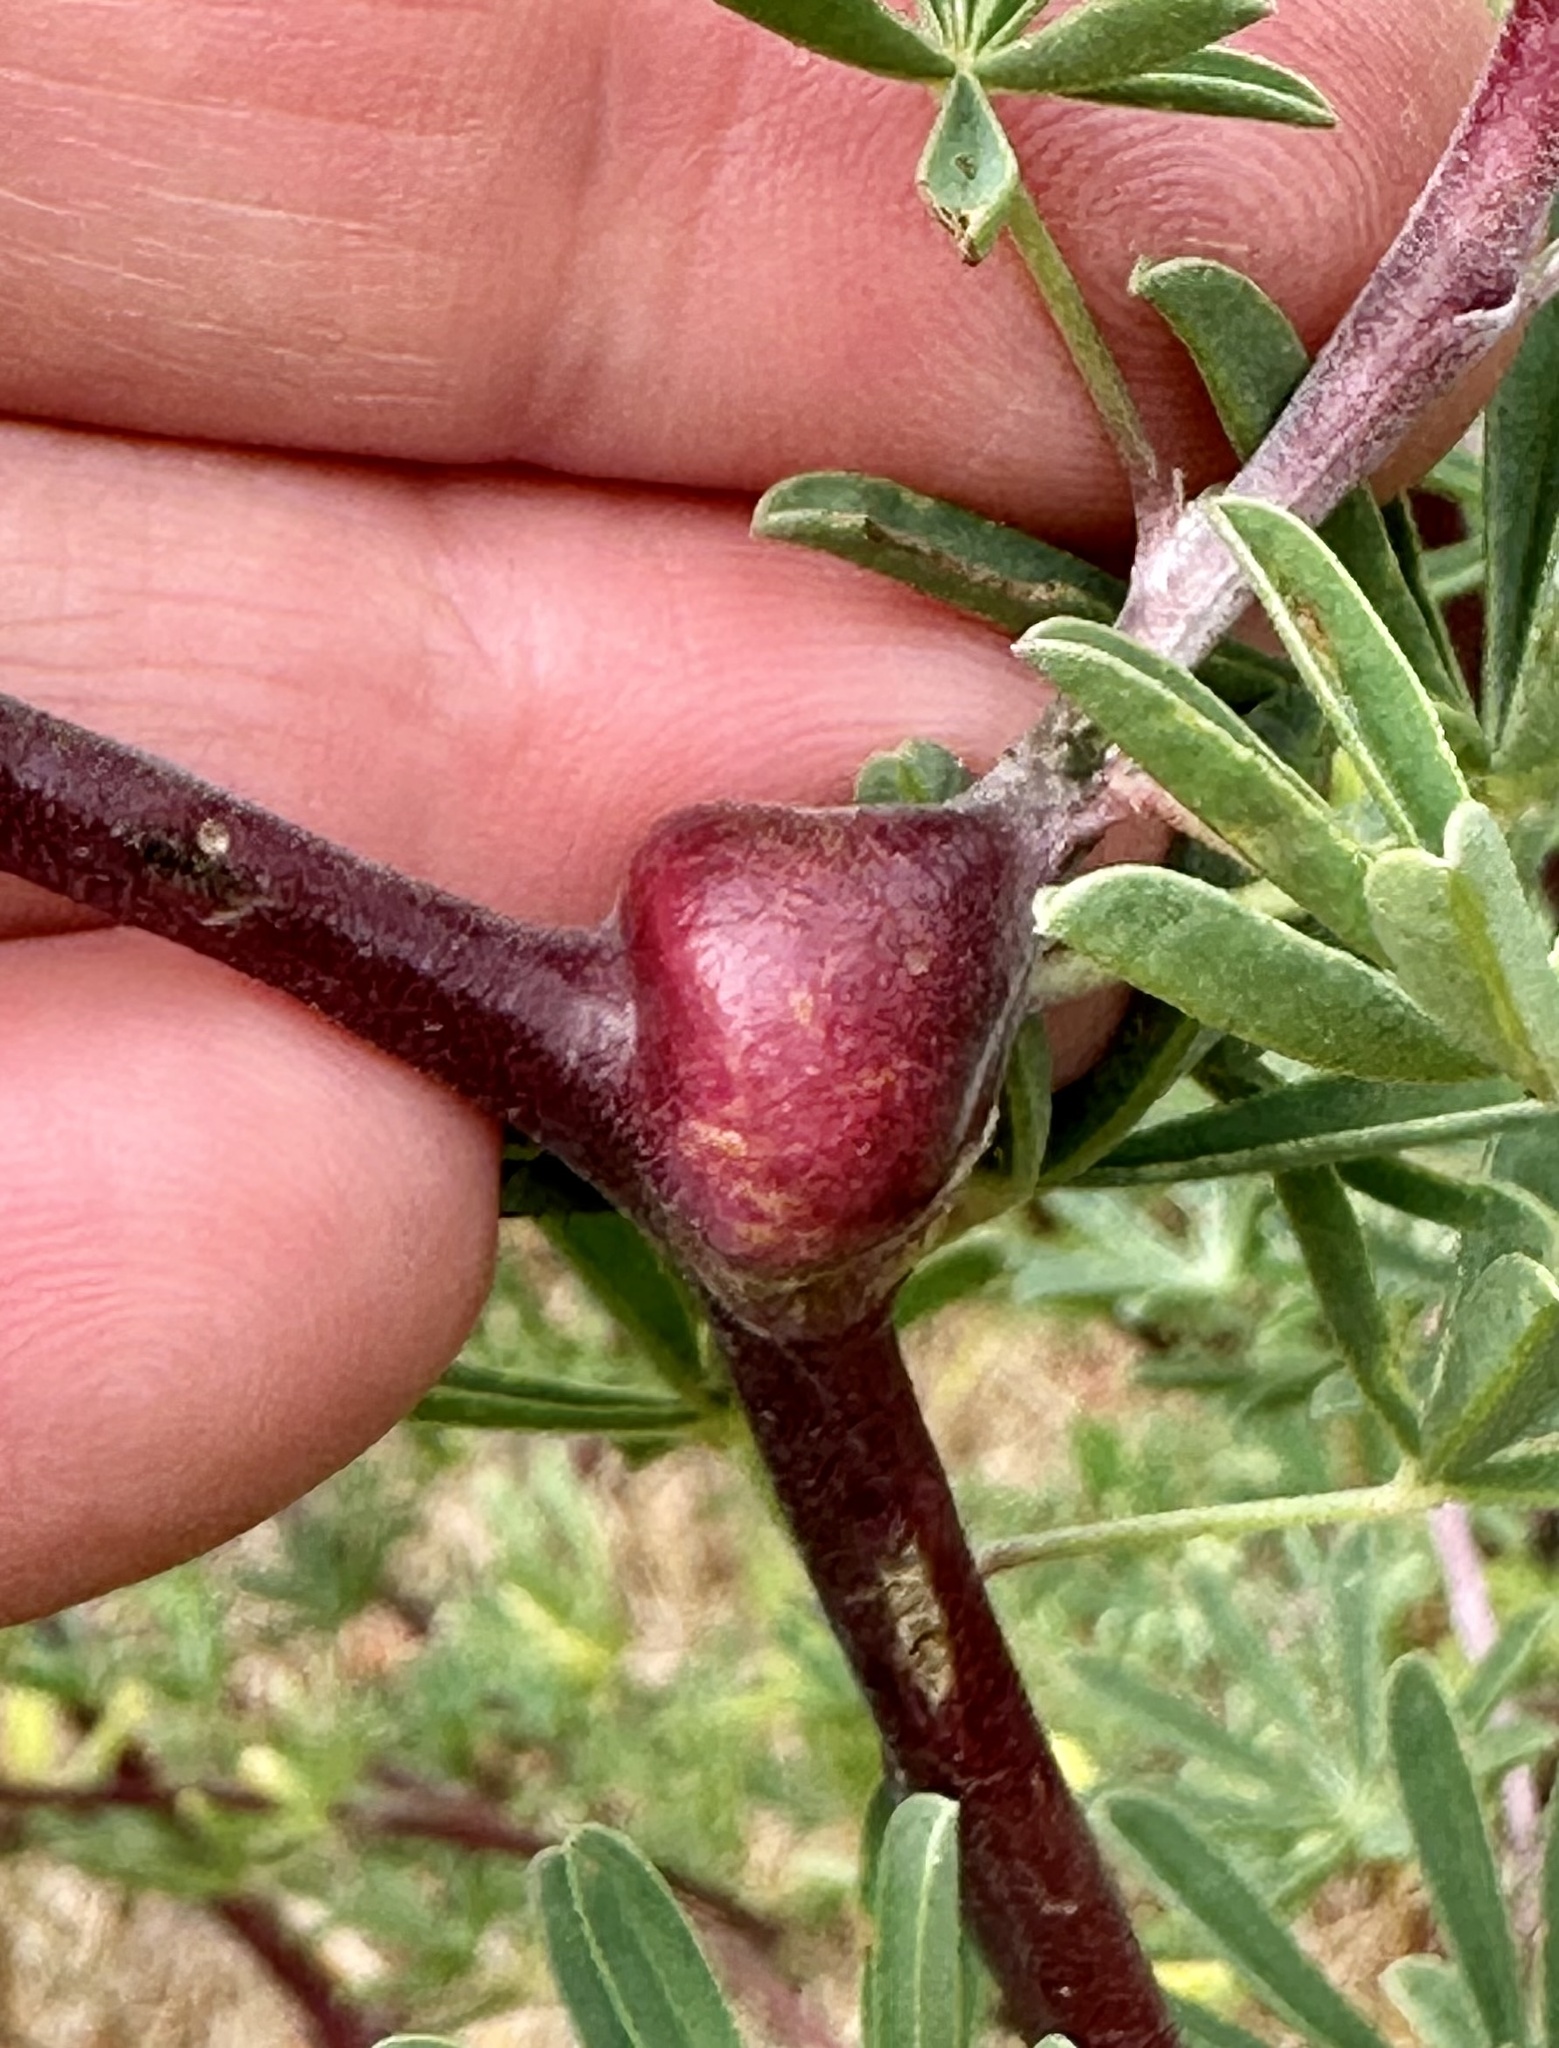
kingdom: Animalia
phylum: Arthropoda
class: Insecta
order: Diptera
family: Cecidomyiidae
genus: Neolasioptera
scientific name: Neolasioptera lupini
